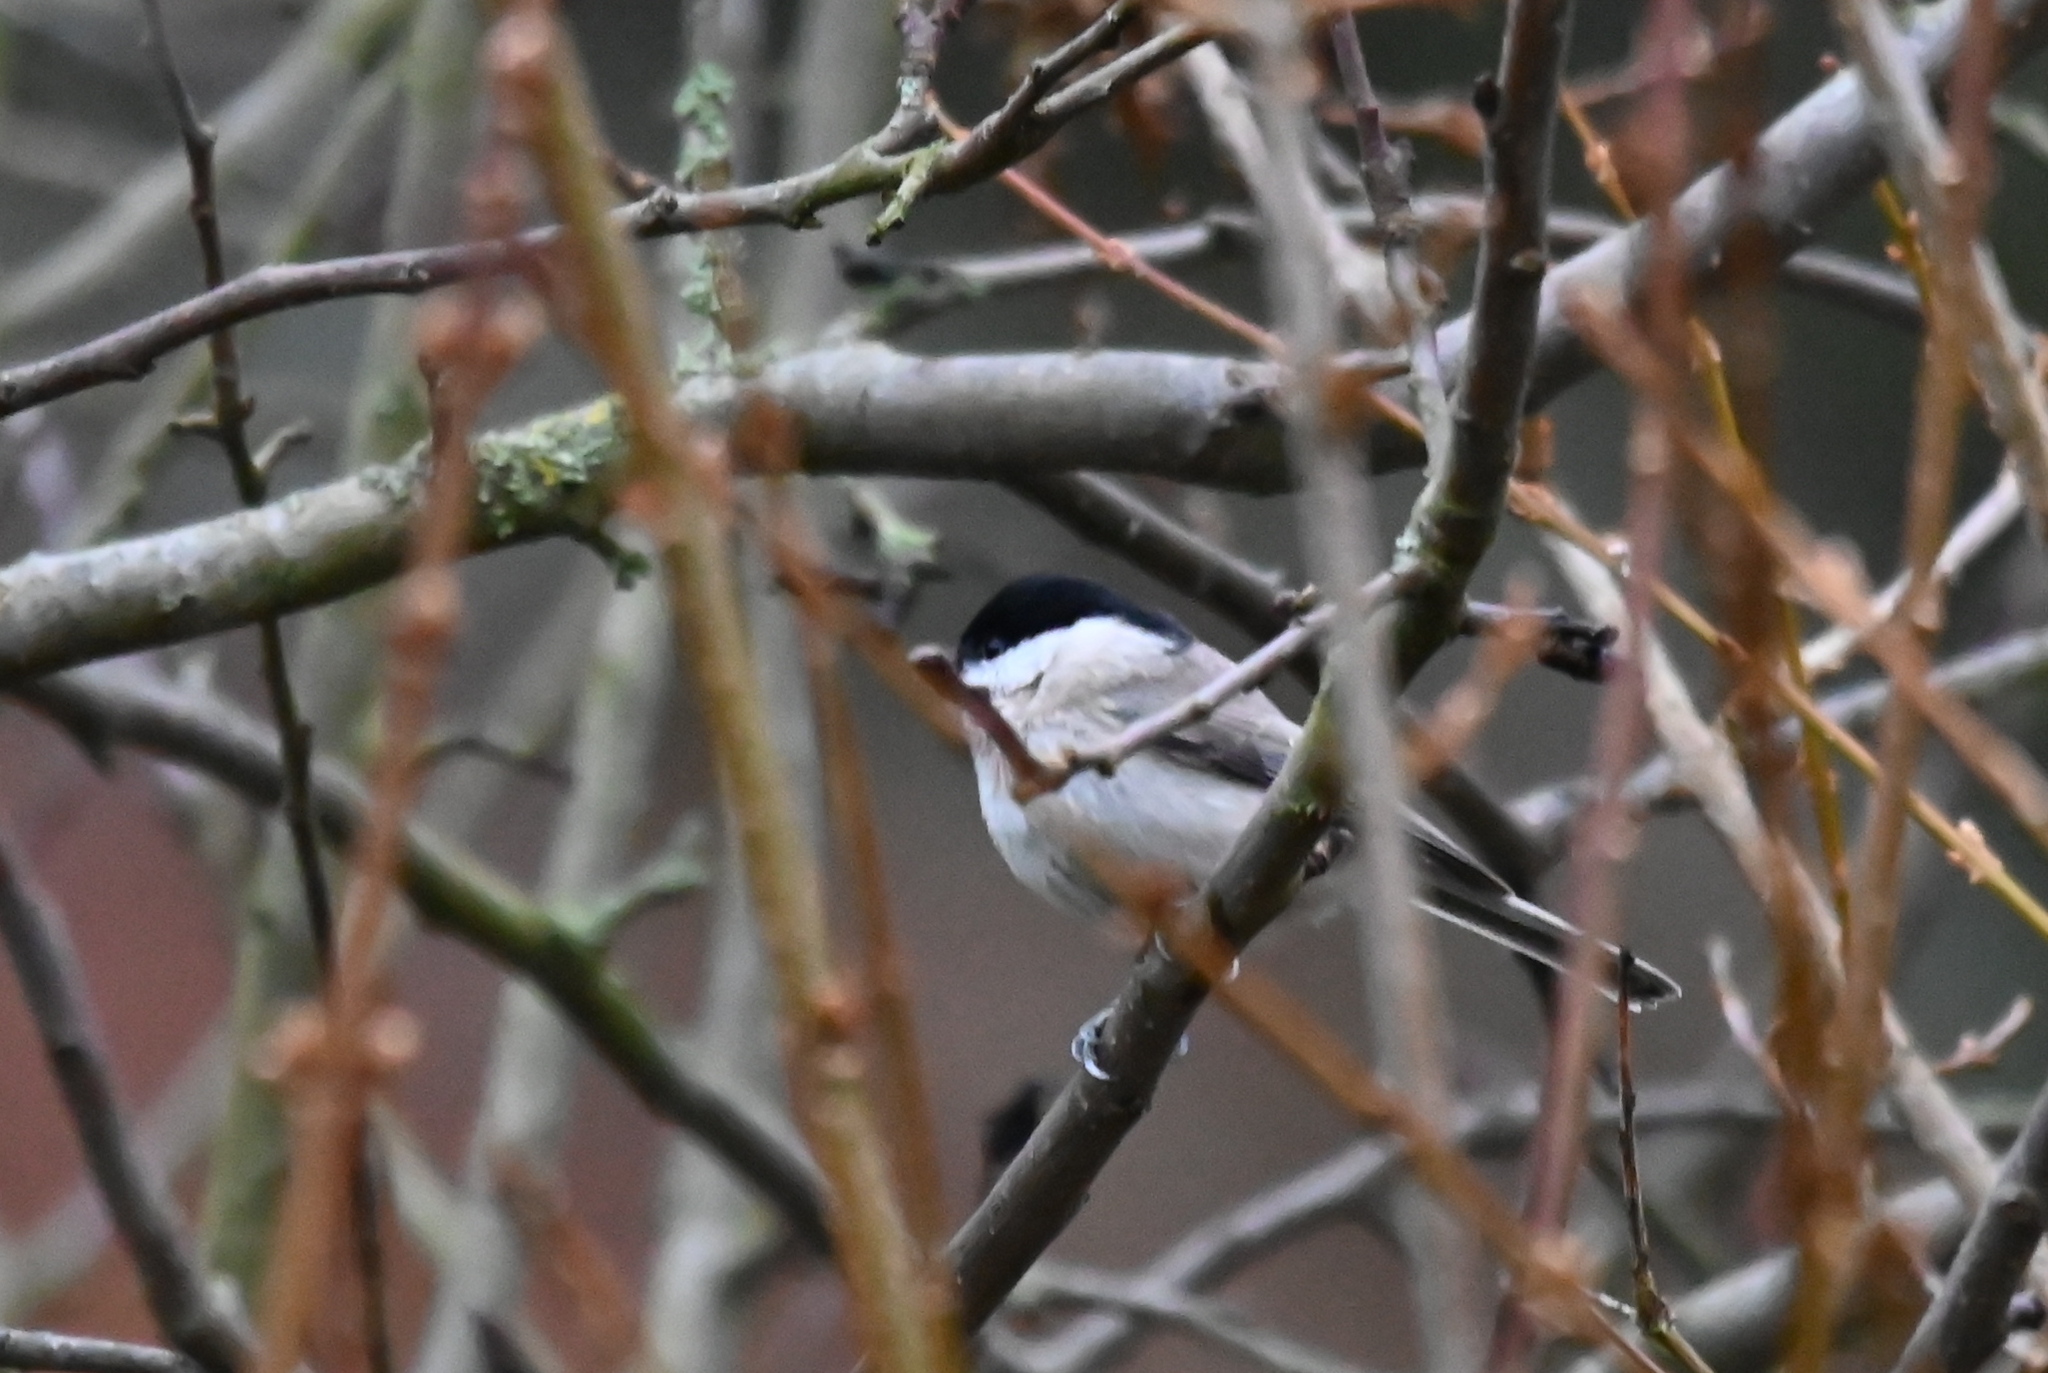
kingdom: Animalia
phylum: Chordata
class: Aves
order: Passeriformes
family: Paridae
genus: Poecile
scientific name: Poecile palustris
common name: Marsh tit
